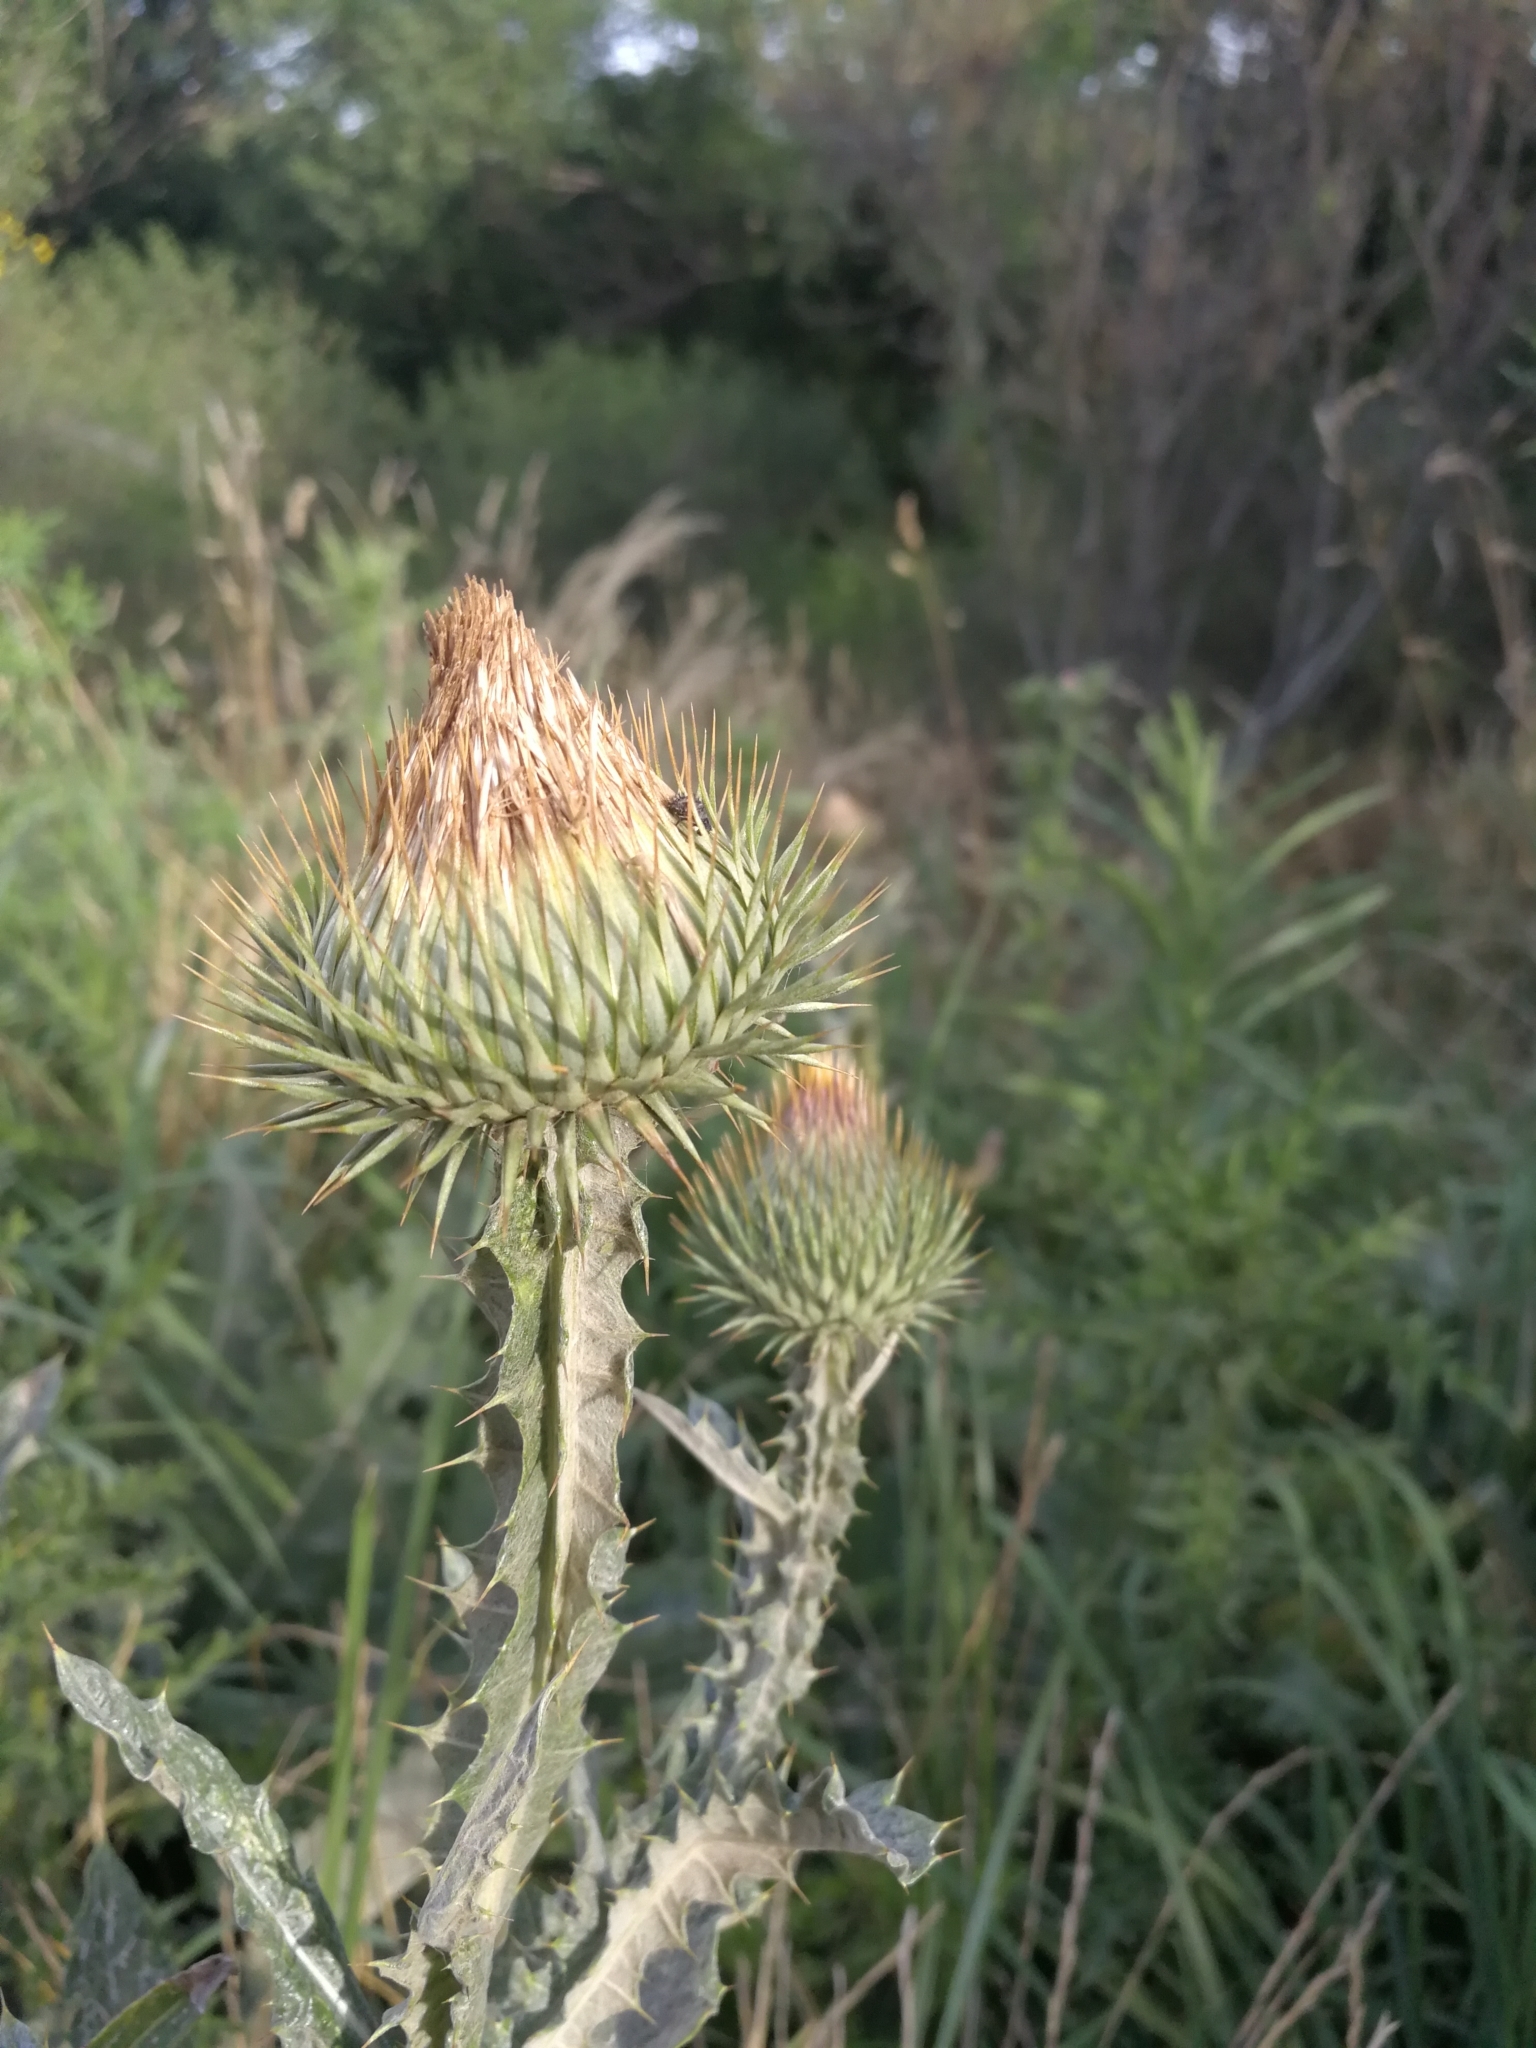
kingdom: Plantae
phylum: Tracheophyta
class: Magnoliopsida
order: Asterales
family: Asteraceae
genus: Onopordum
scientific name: Onopordum acanthium
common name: Scotch thistle
